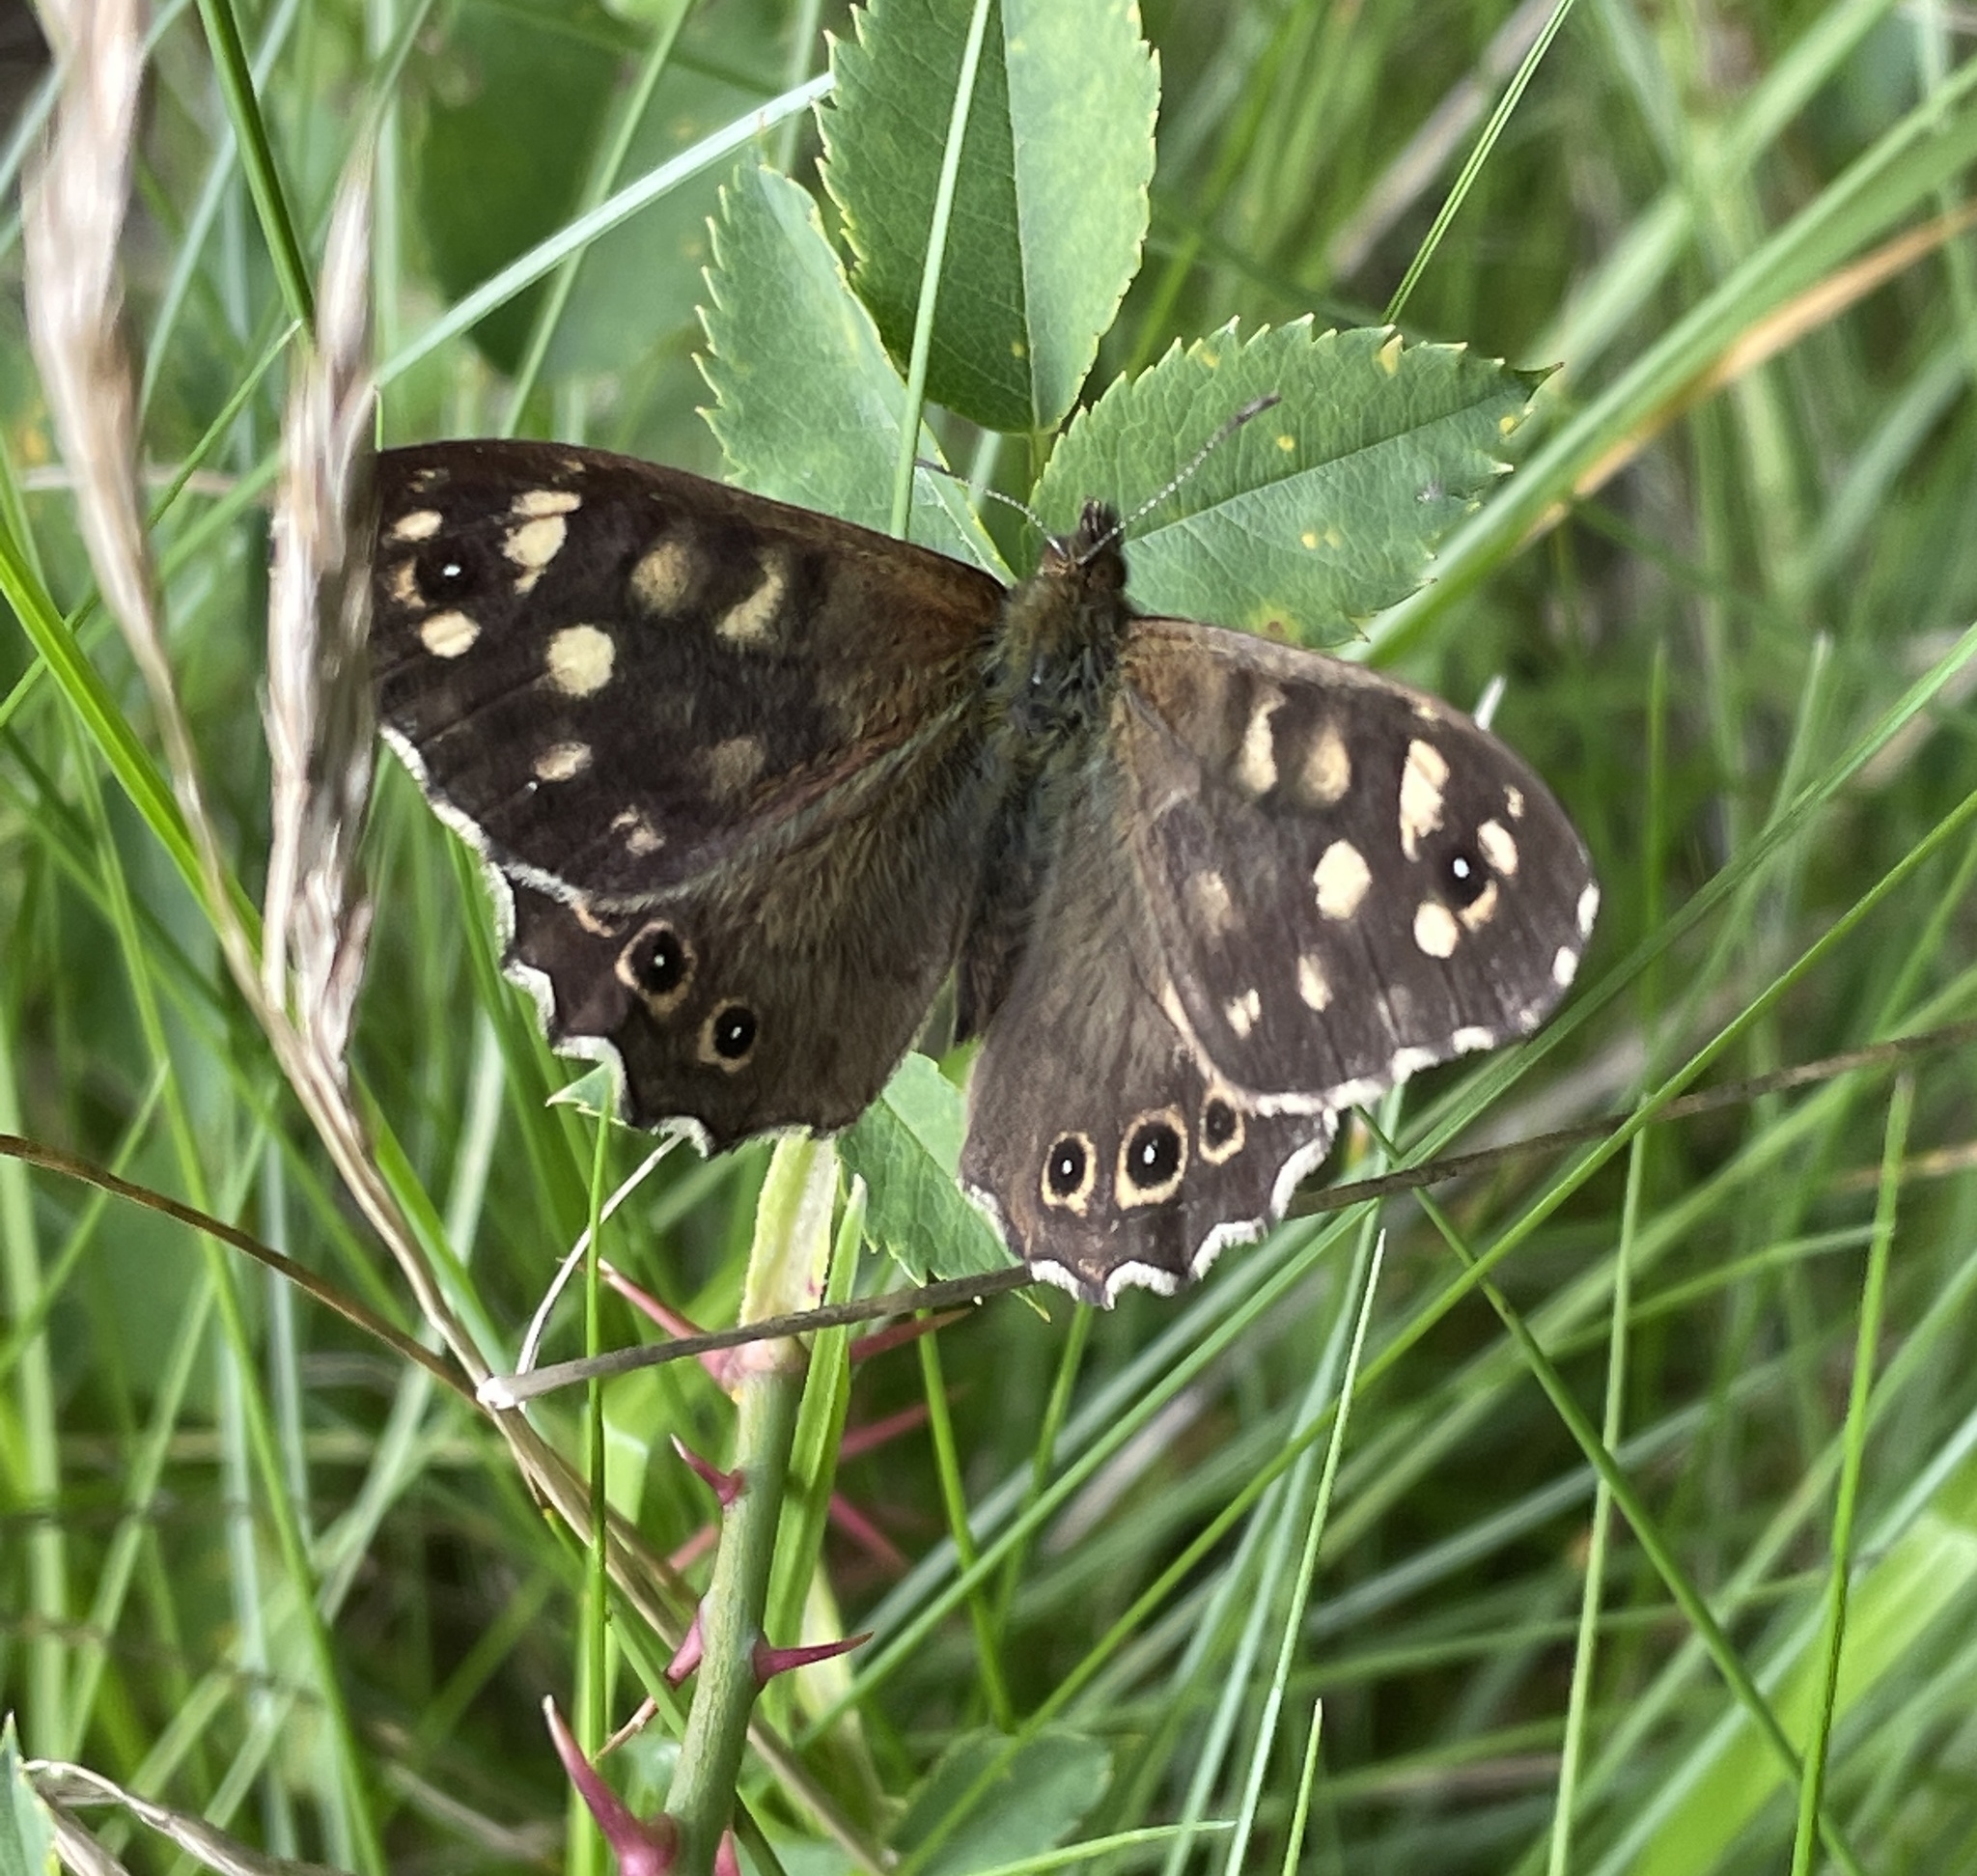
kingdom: Animalia
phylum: Arthropoda
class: Insecta
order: Lepidoptera
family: Nymphalidae
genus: Pararge
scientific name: Pararge aegeria
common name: Speckled wood
